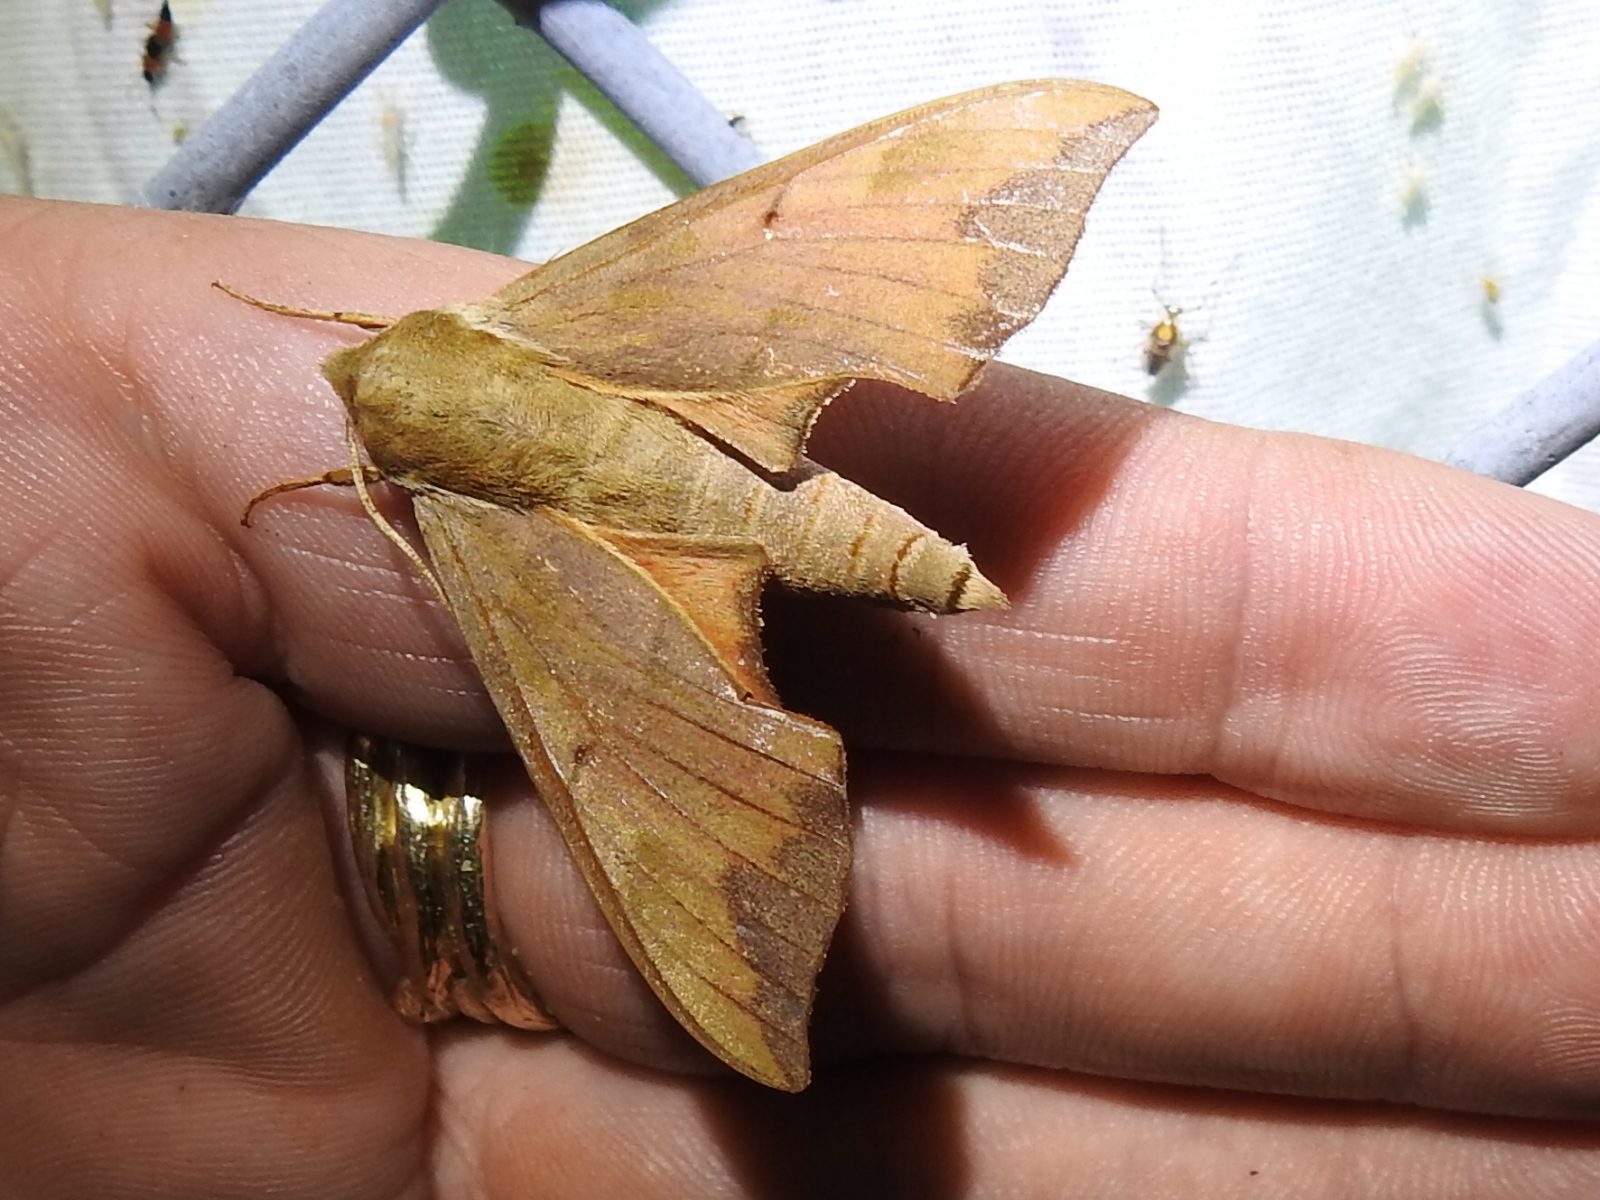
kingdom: Animalia
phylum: Arthropoda
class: Insecta
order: Lepidoptera
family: Sphingidae
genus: Darapsa
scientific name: Darapsa myron
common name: Hog sphinx
